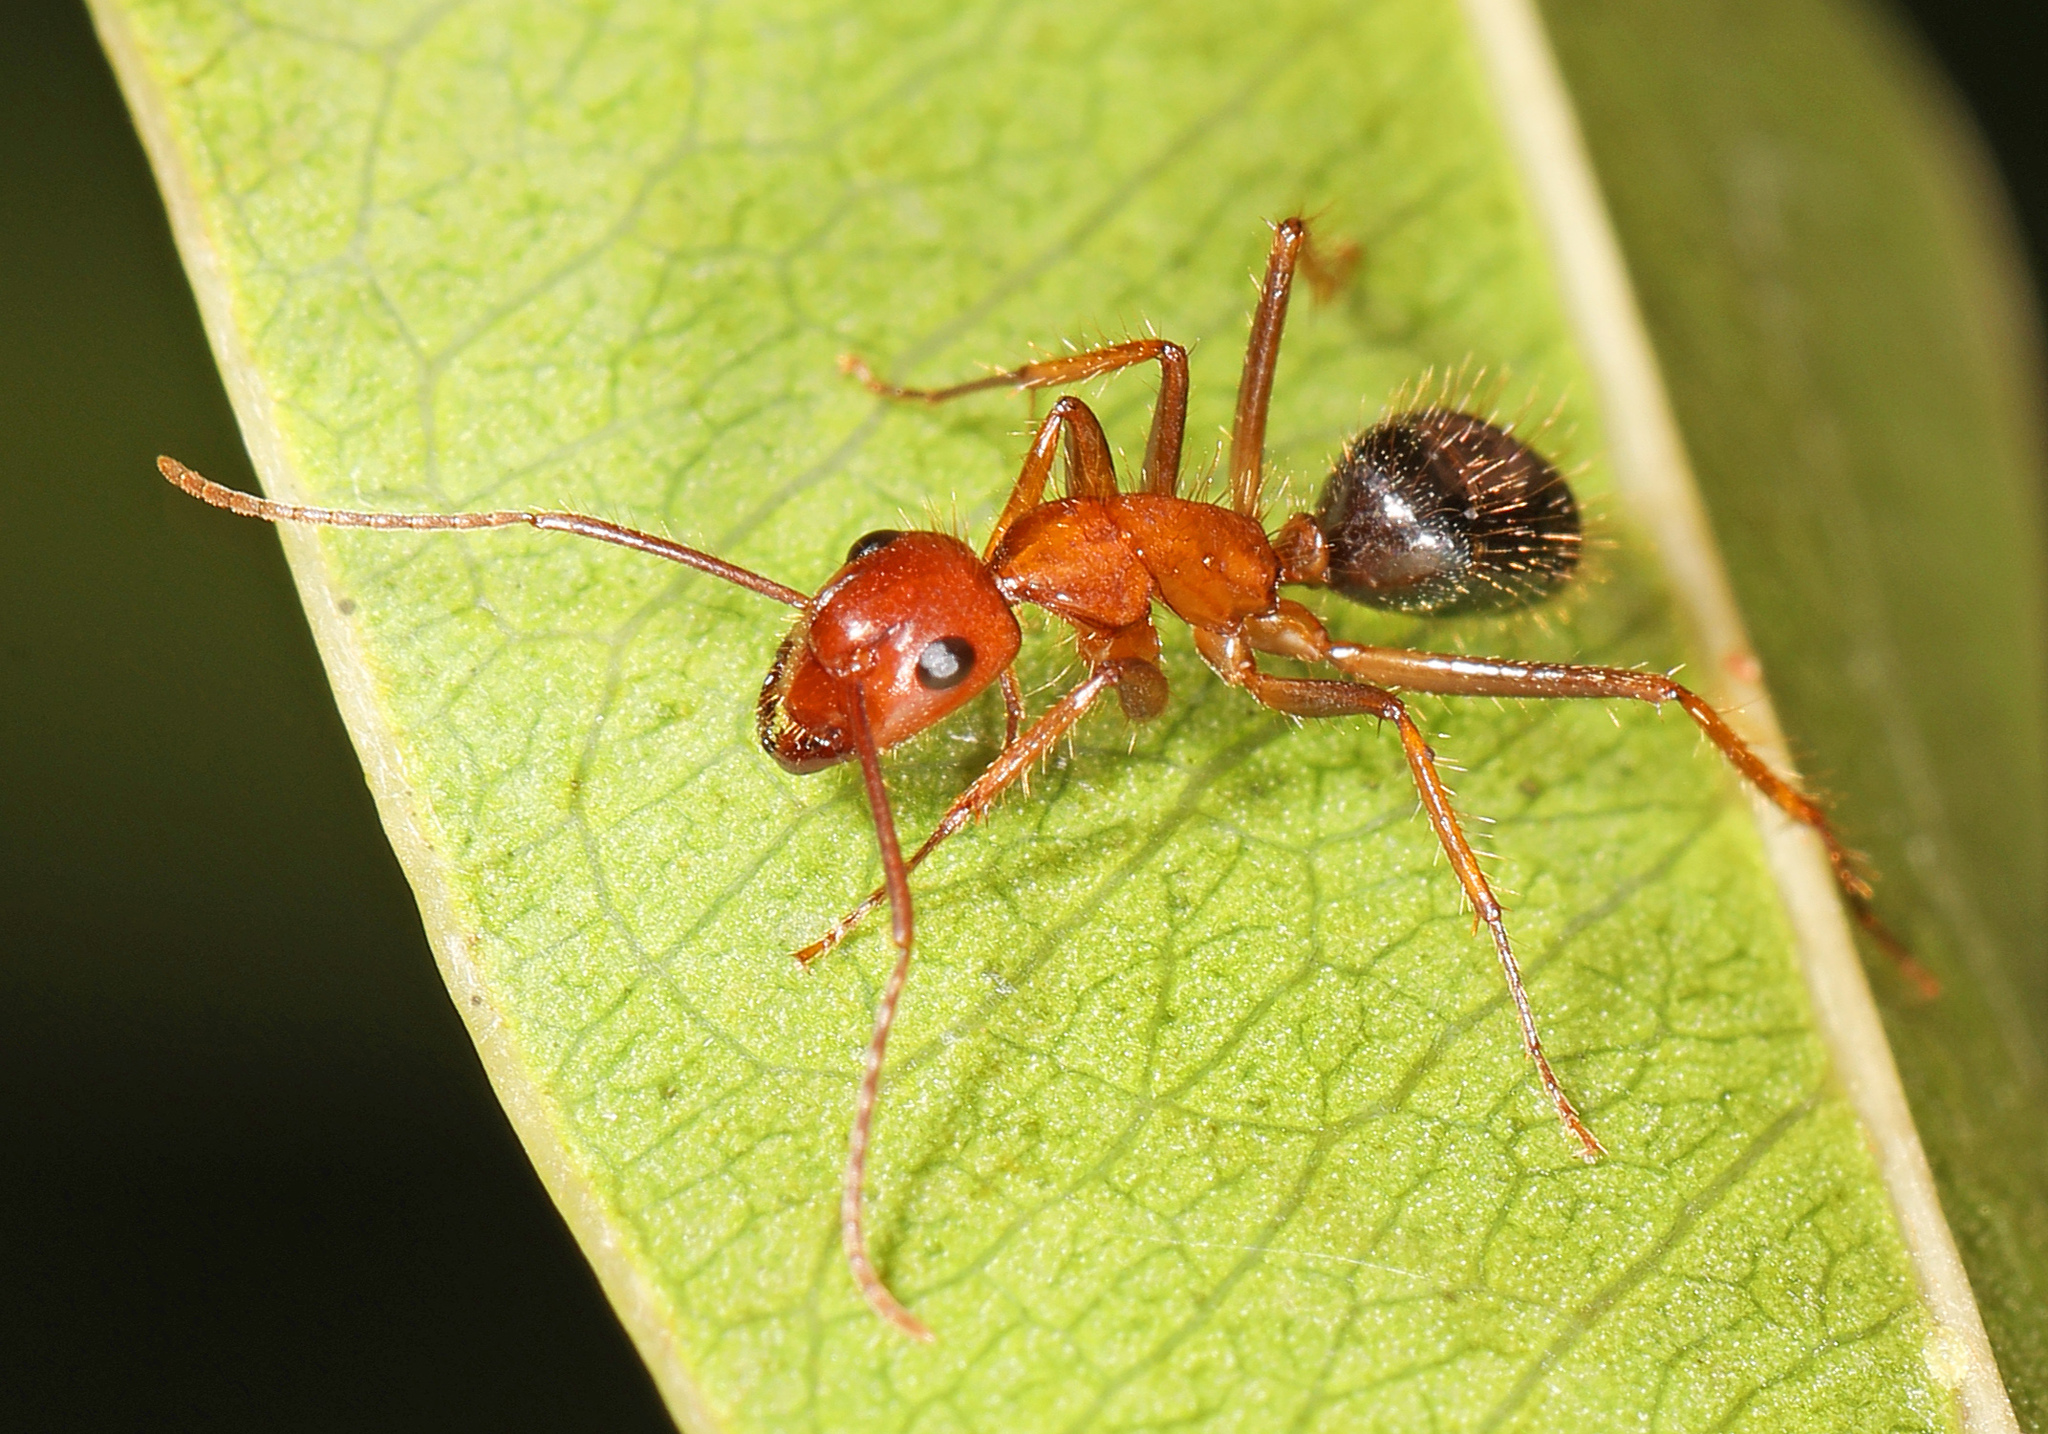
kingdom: Animalia
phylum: Arthropoda
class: Insecta
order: Hymenoptera
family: Formicidae
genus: Camponotus
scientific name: Camponotus floridanus
